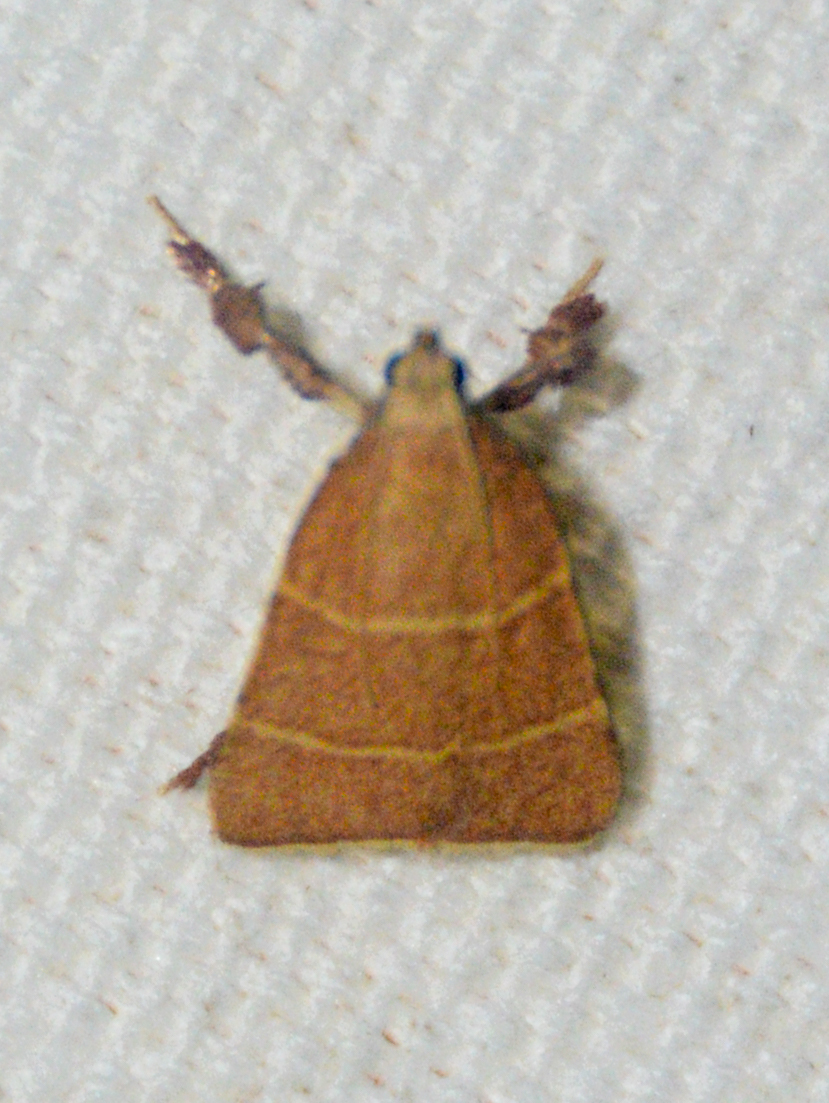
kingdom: Animalia
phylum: Arthropoda
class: Insecta
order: Lepidoptera
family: Pyralidae
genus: Parachma
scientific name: Parachma ochracealis
